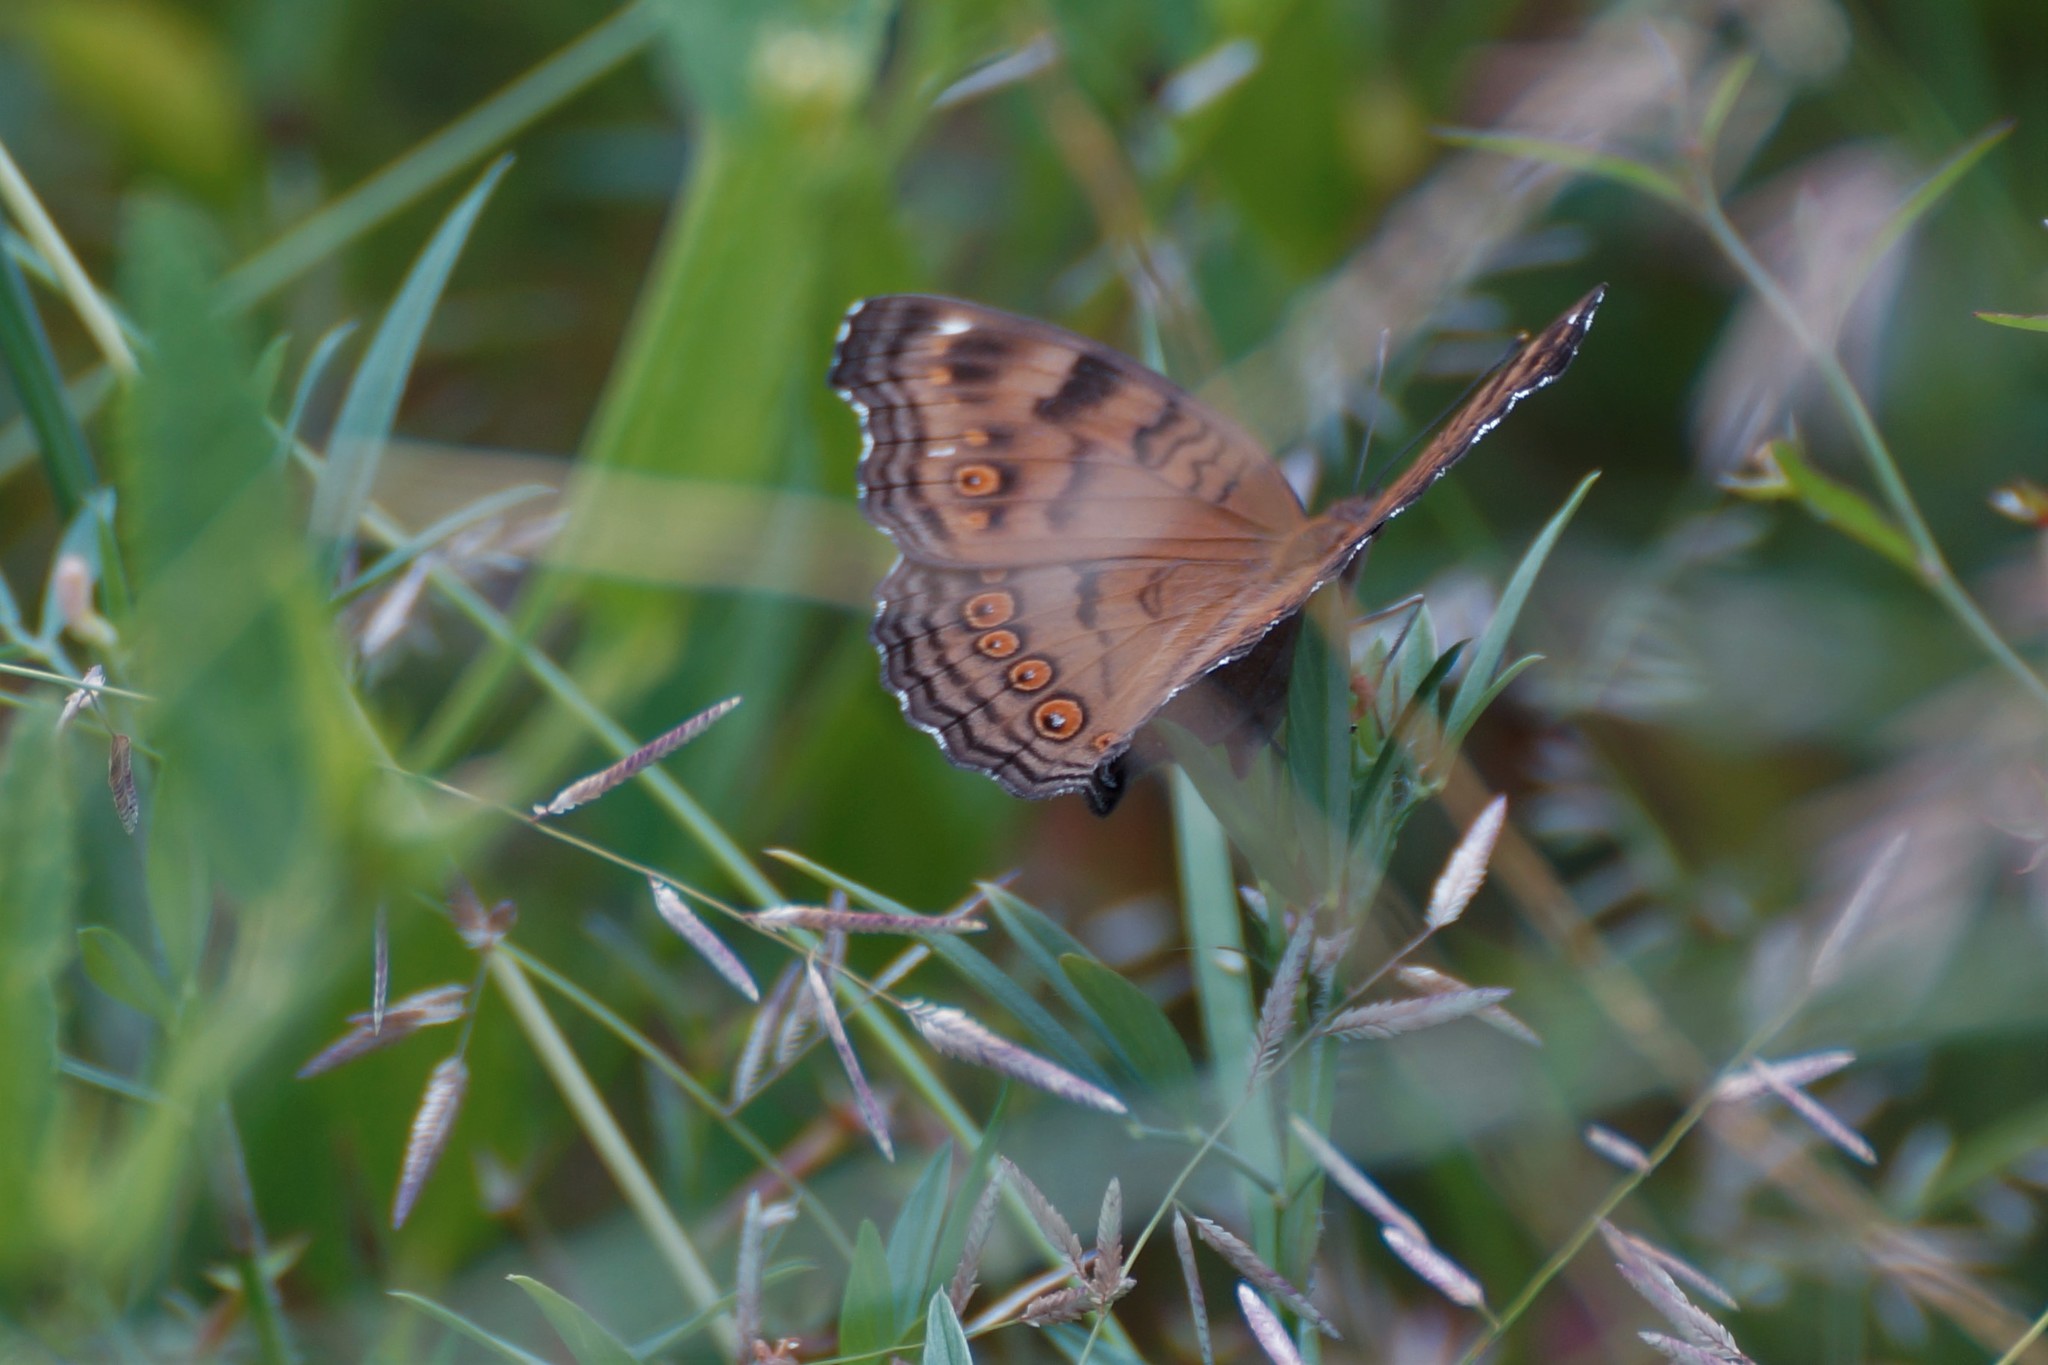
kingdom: Animalia
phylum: Arthropoda
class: Insecta
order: Lepidoptera
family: Nymphalidae
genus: Junonia
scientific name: Junonia hedonia
